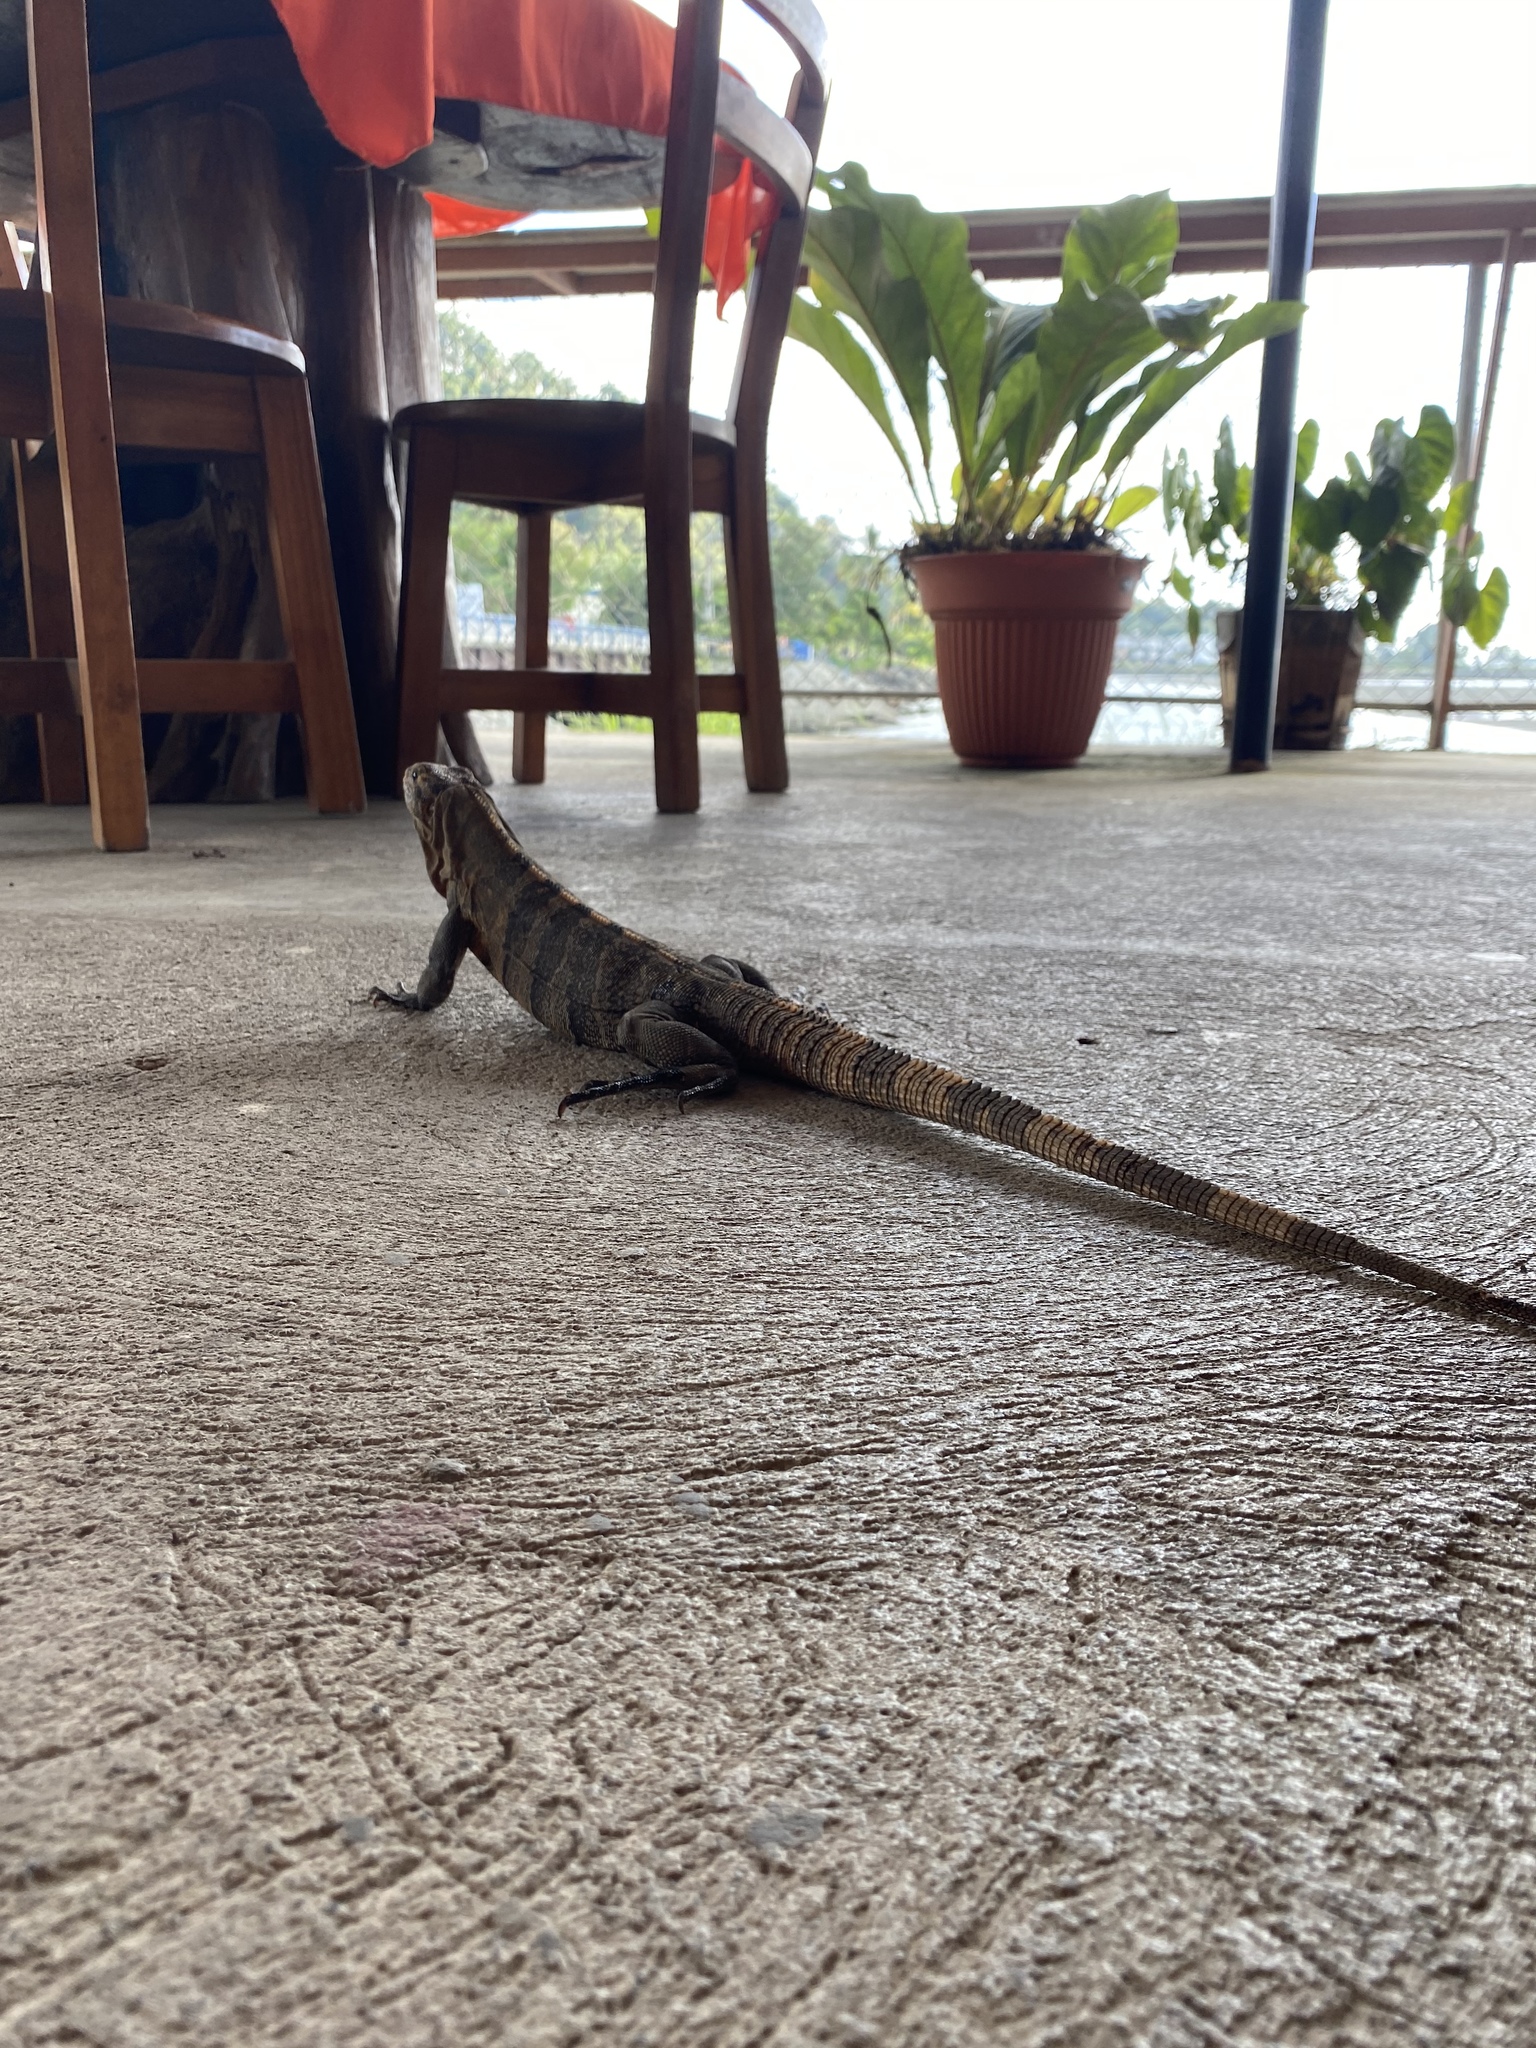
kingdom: Animalia
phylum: Chordata
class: Squamata
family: Iguanidae
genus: Ctenosaura
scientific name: Ctenosaura similis
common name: Black spiny-tailed iguana
